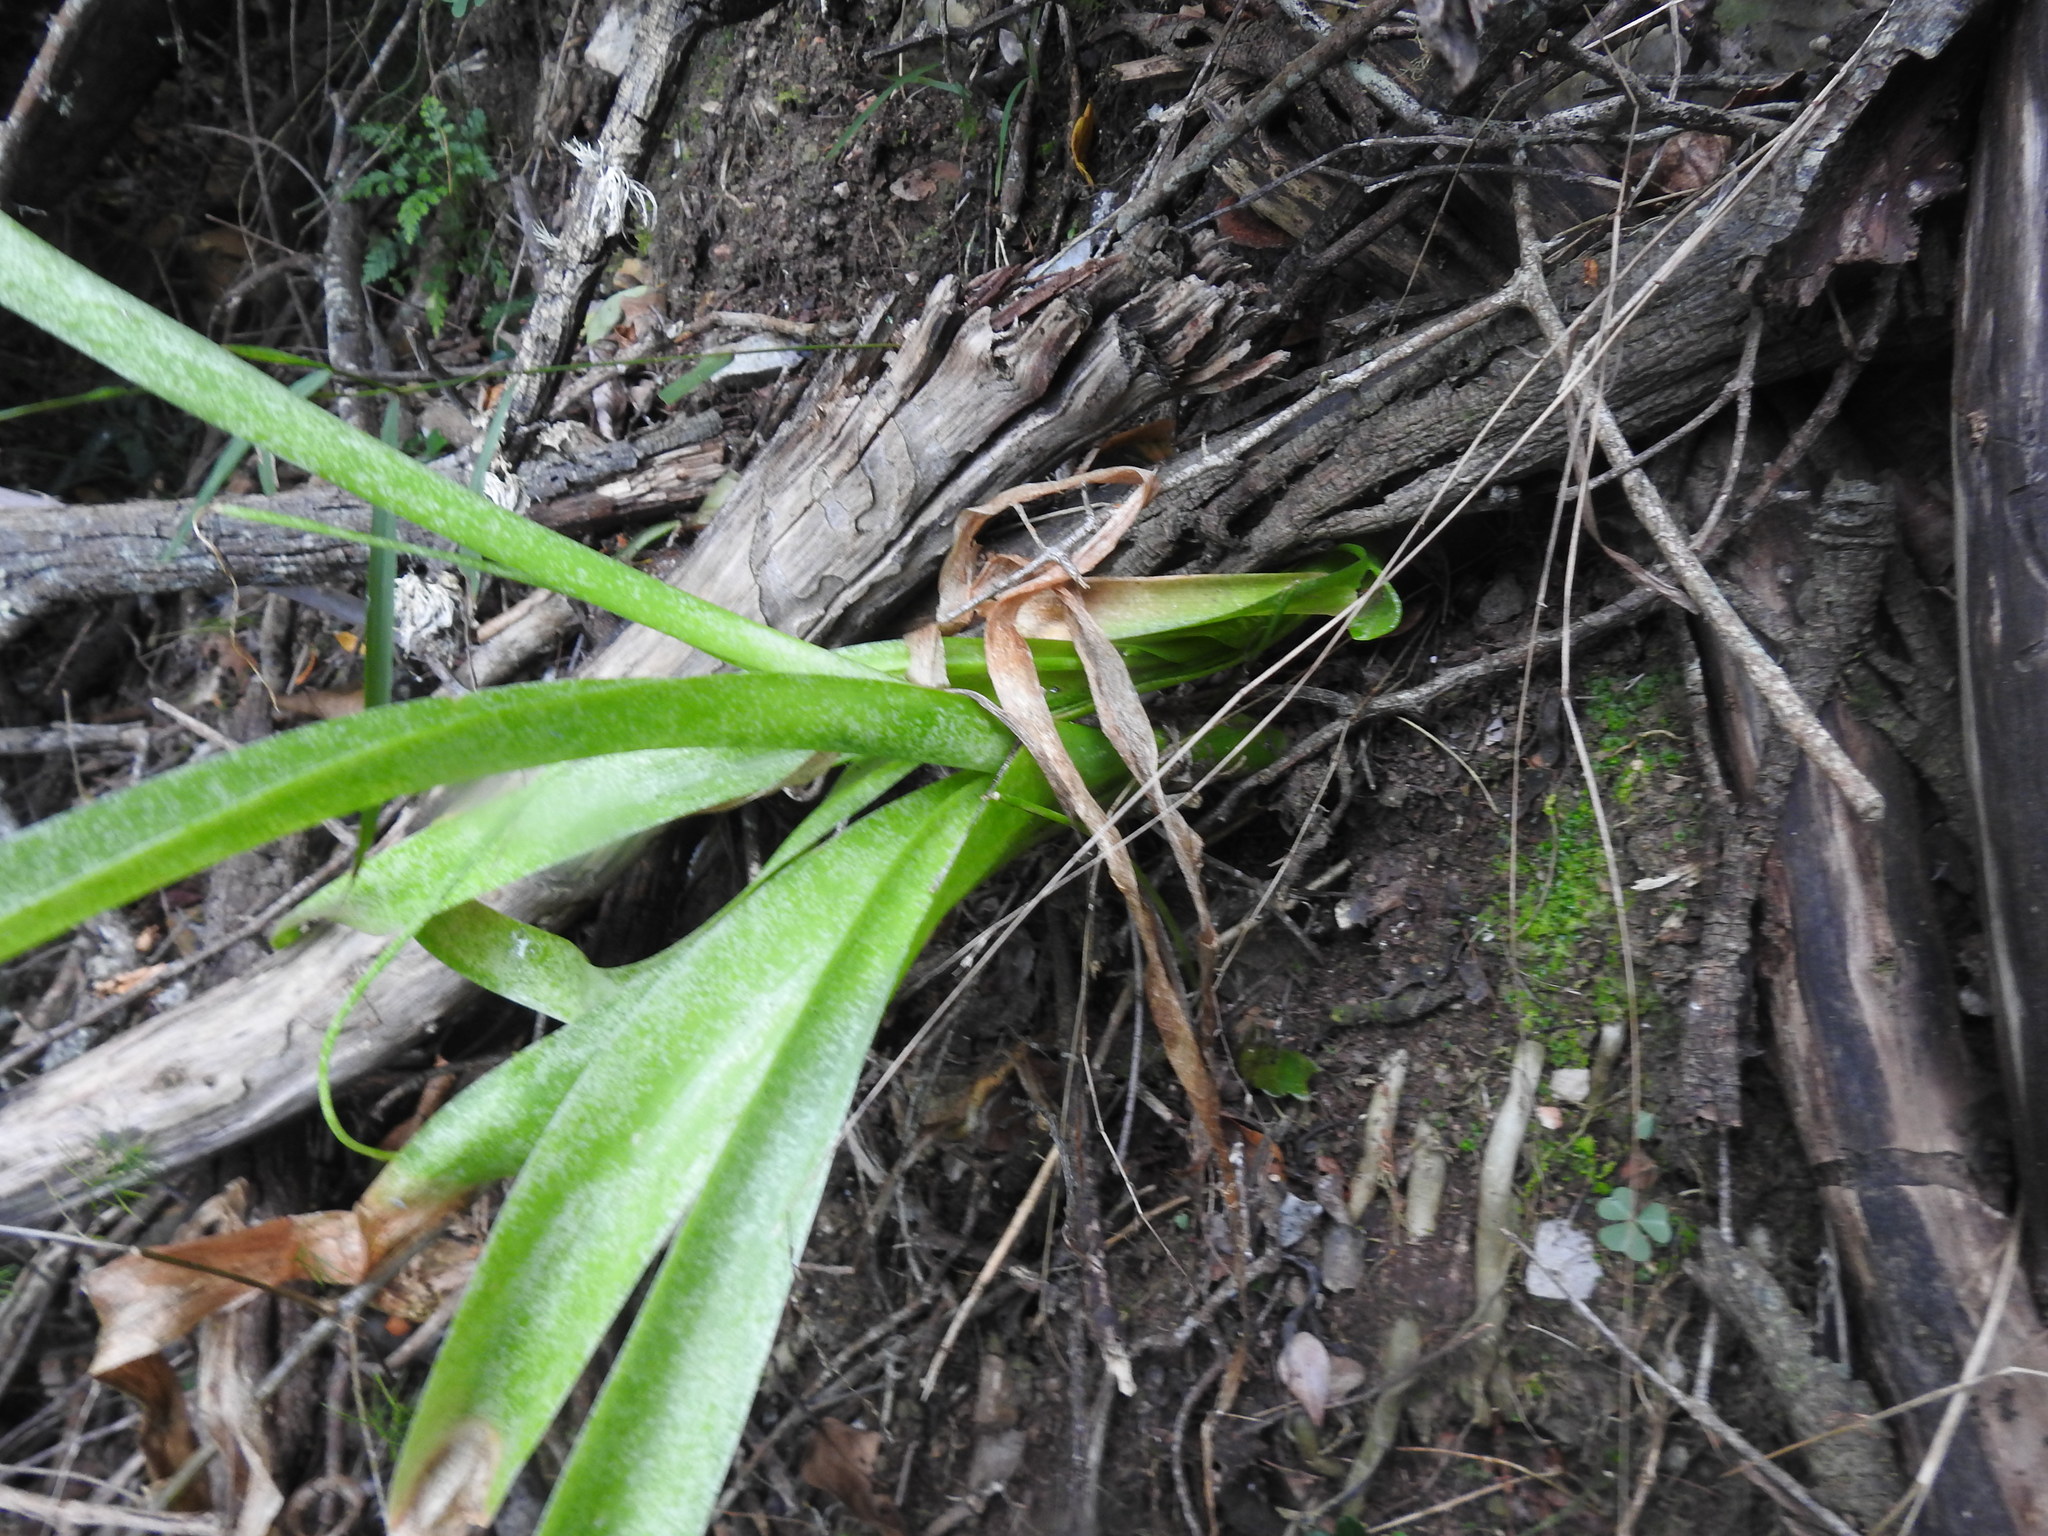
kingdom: Plantae
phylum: Tracheophyta
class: Liliopsida
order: Asparagales
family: Asparagaceae
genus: Albuca
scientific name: Albuca bracteata
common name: Sea-onion
